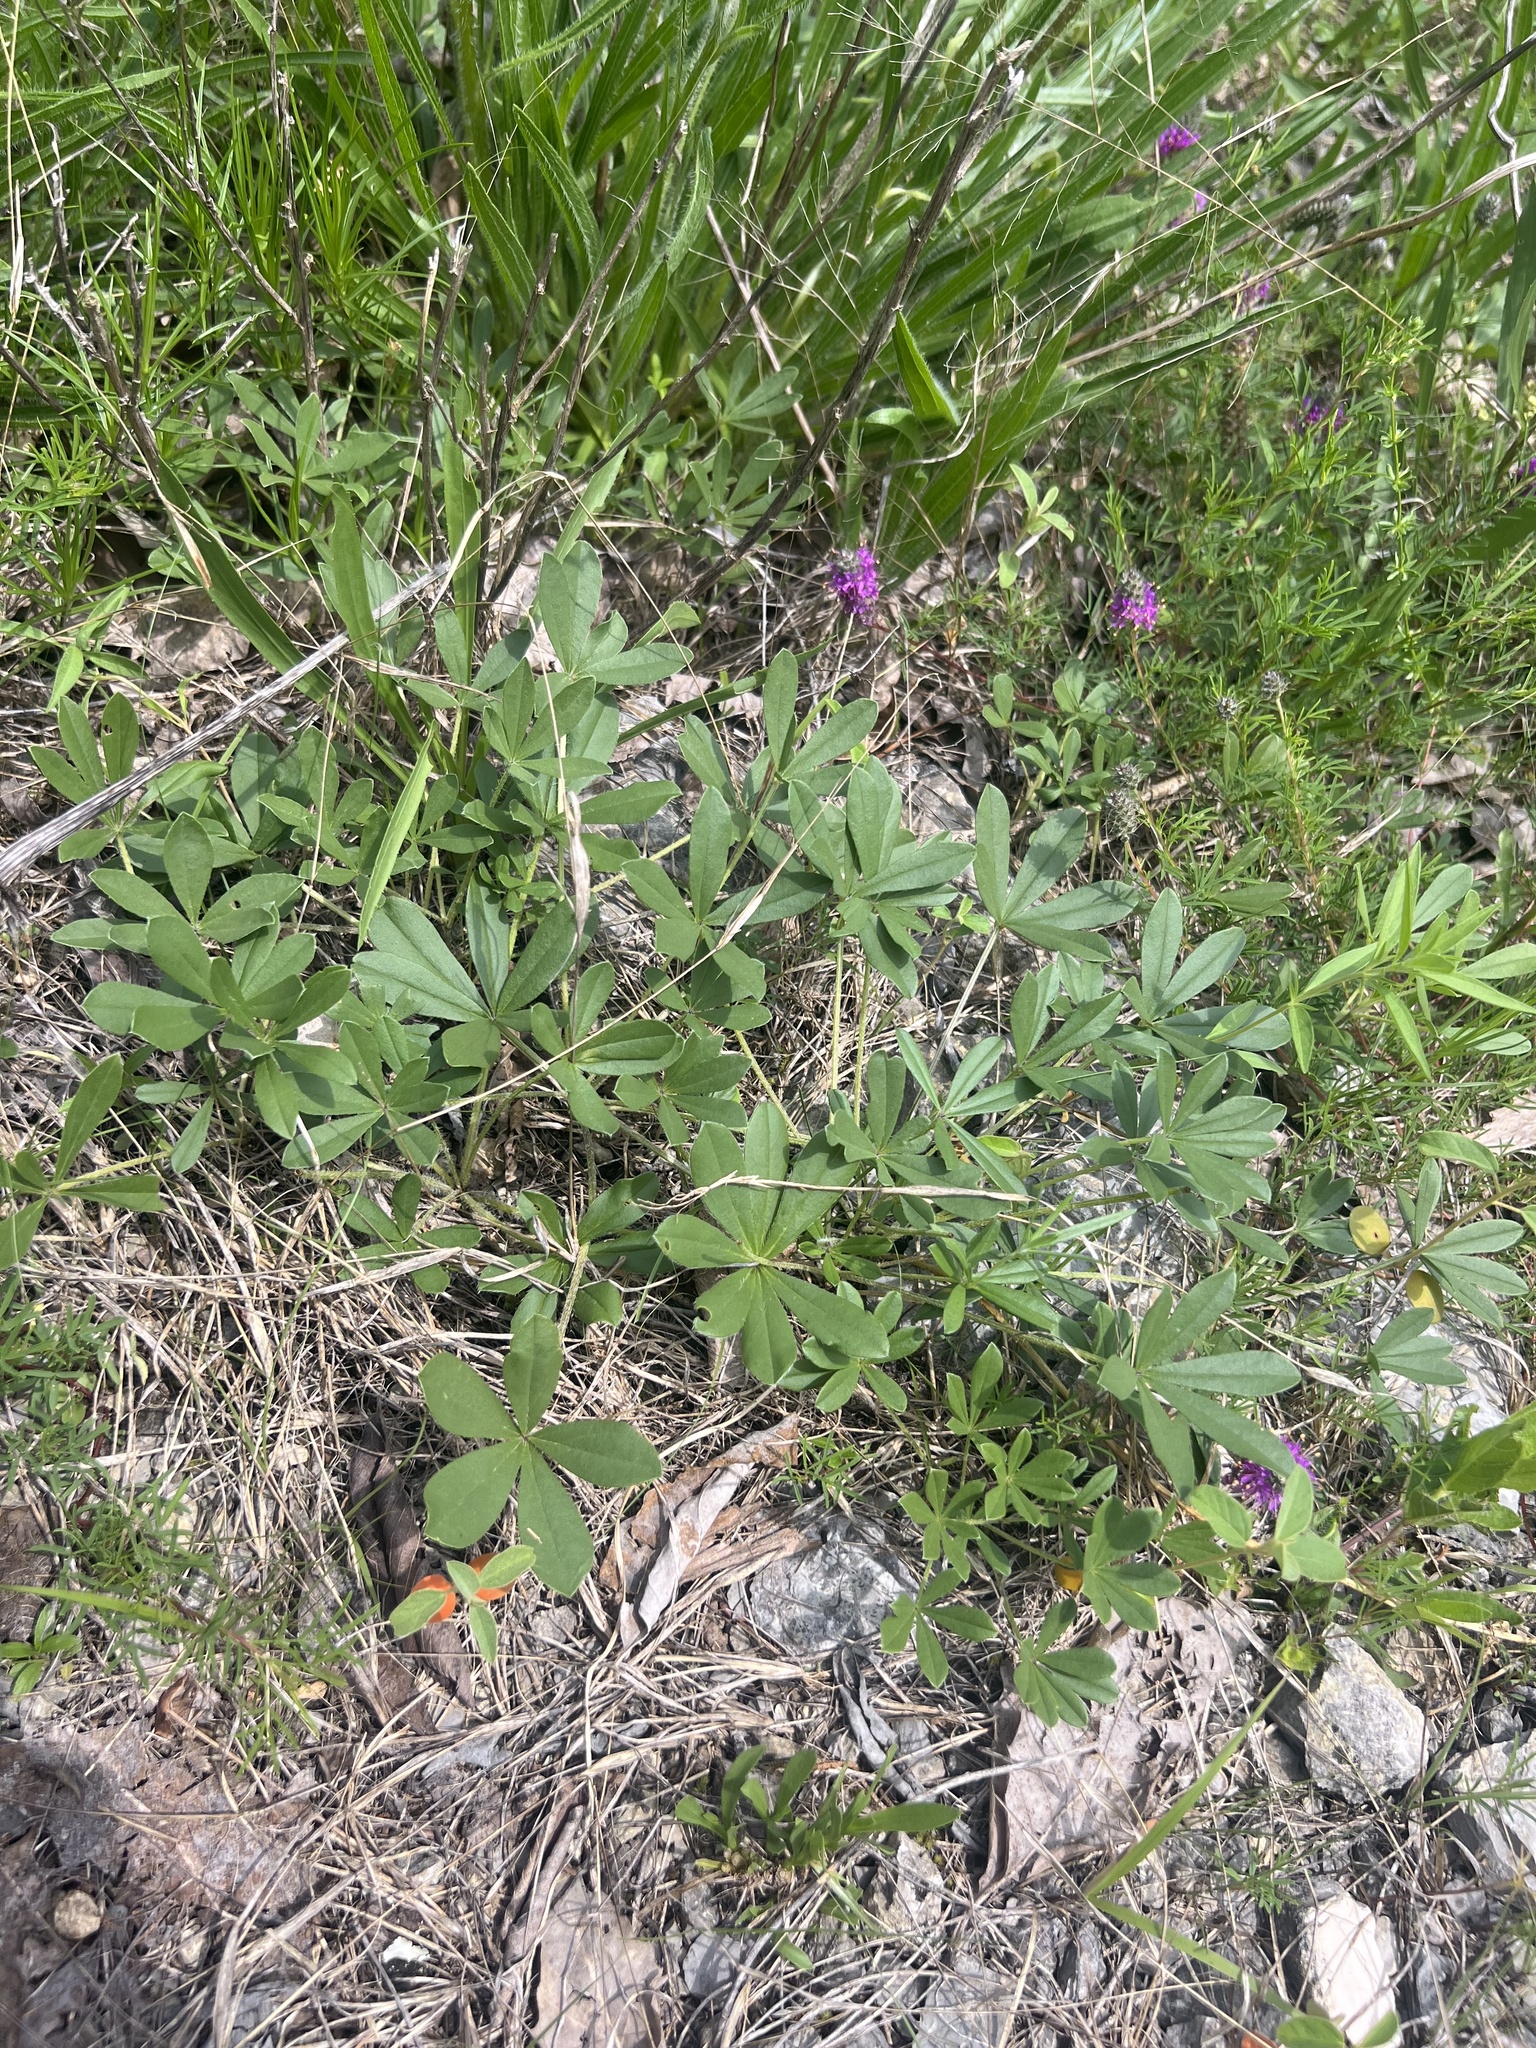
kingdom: Plantae
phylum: Tracheophyta
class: Magnoliopsida
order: Fabales
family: Fabaceae
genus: Pediomelum
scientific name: Pediomelum subacaule
